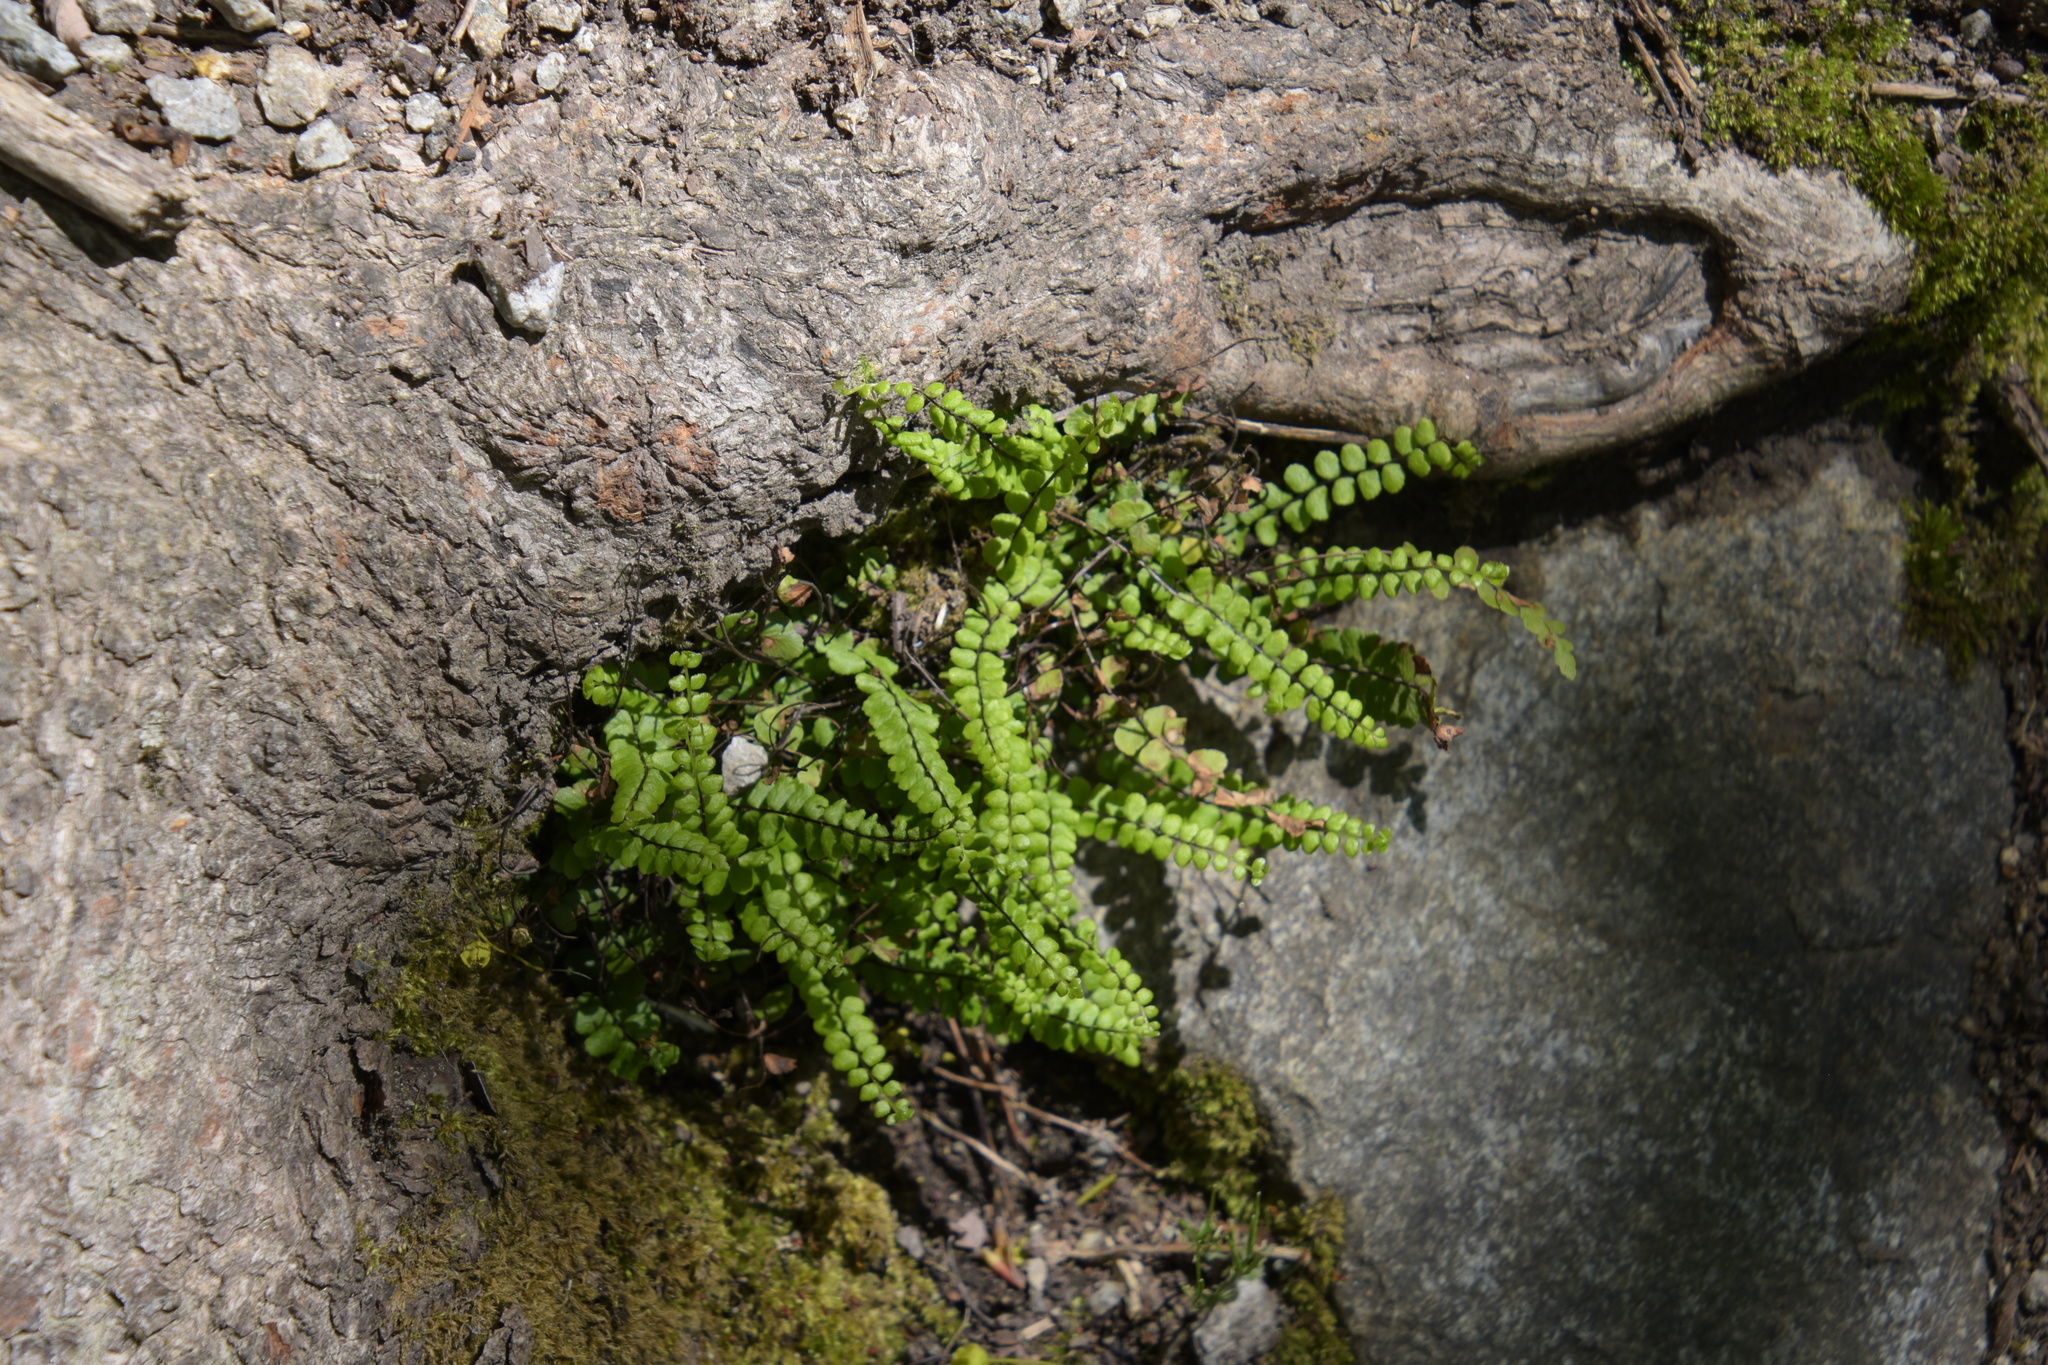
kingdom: Plantae
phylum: Tracheophyta
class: Polypodiopsida
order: Polypodiales
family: Aspleniaceae
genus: Asplenium
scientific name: Asplenium trichomanes
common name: Maidenhair spleenwort
